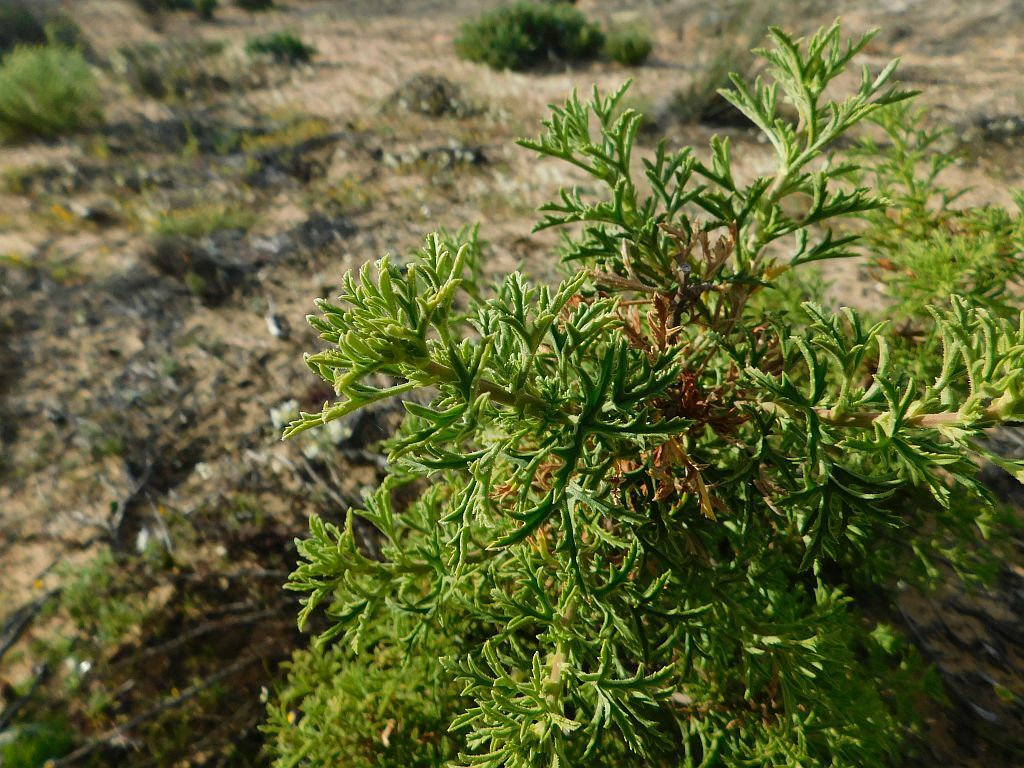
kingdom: Plantae
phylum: Tracheophyta
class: Magnoliopsida
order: Geraniales
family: Geraniaceae
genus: Pelargonium
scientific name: Pelargonium scabrum
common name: Apricot geranium
